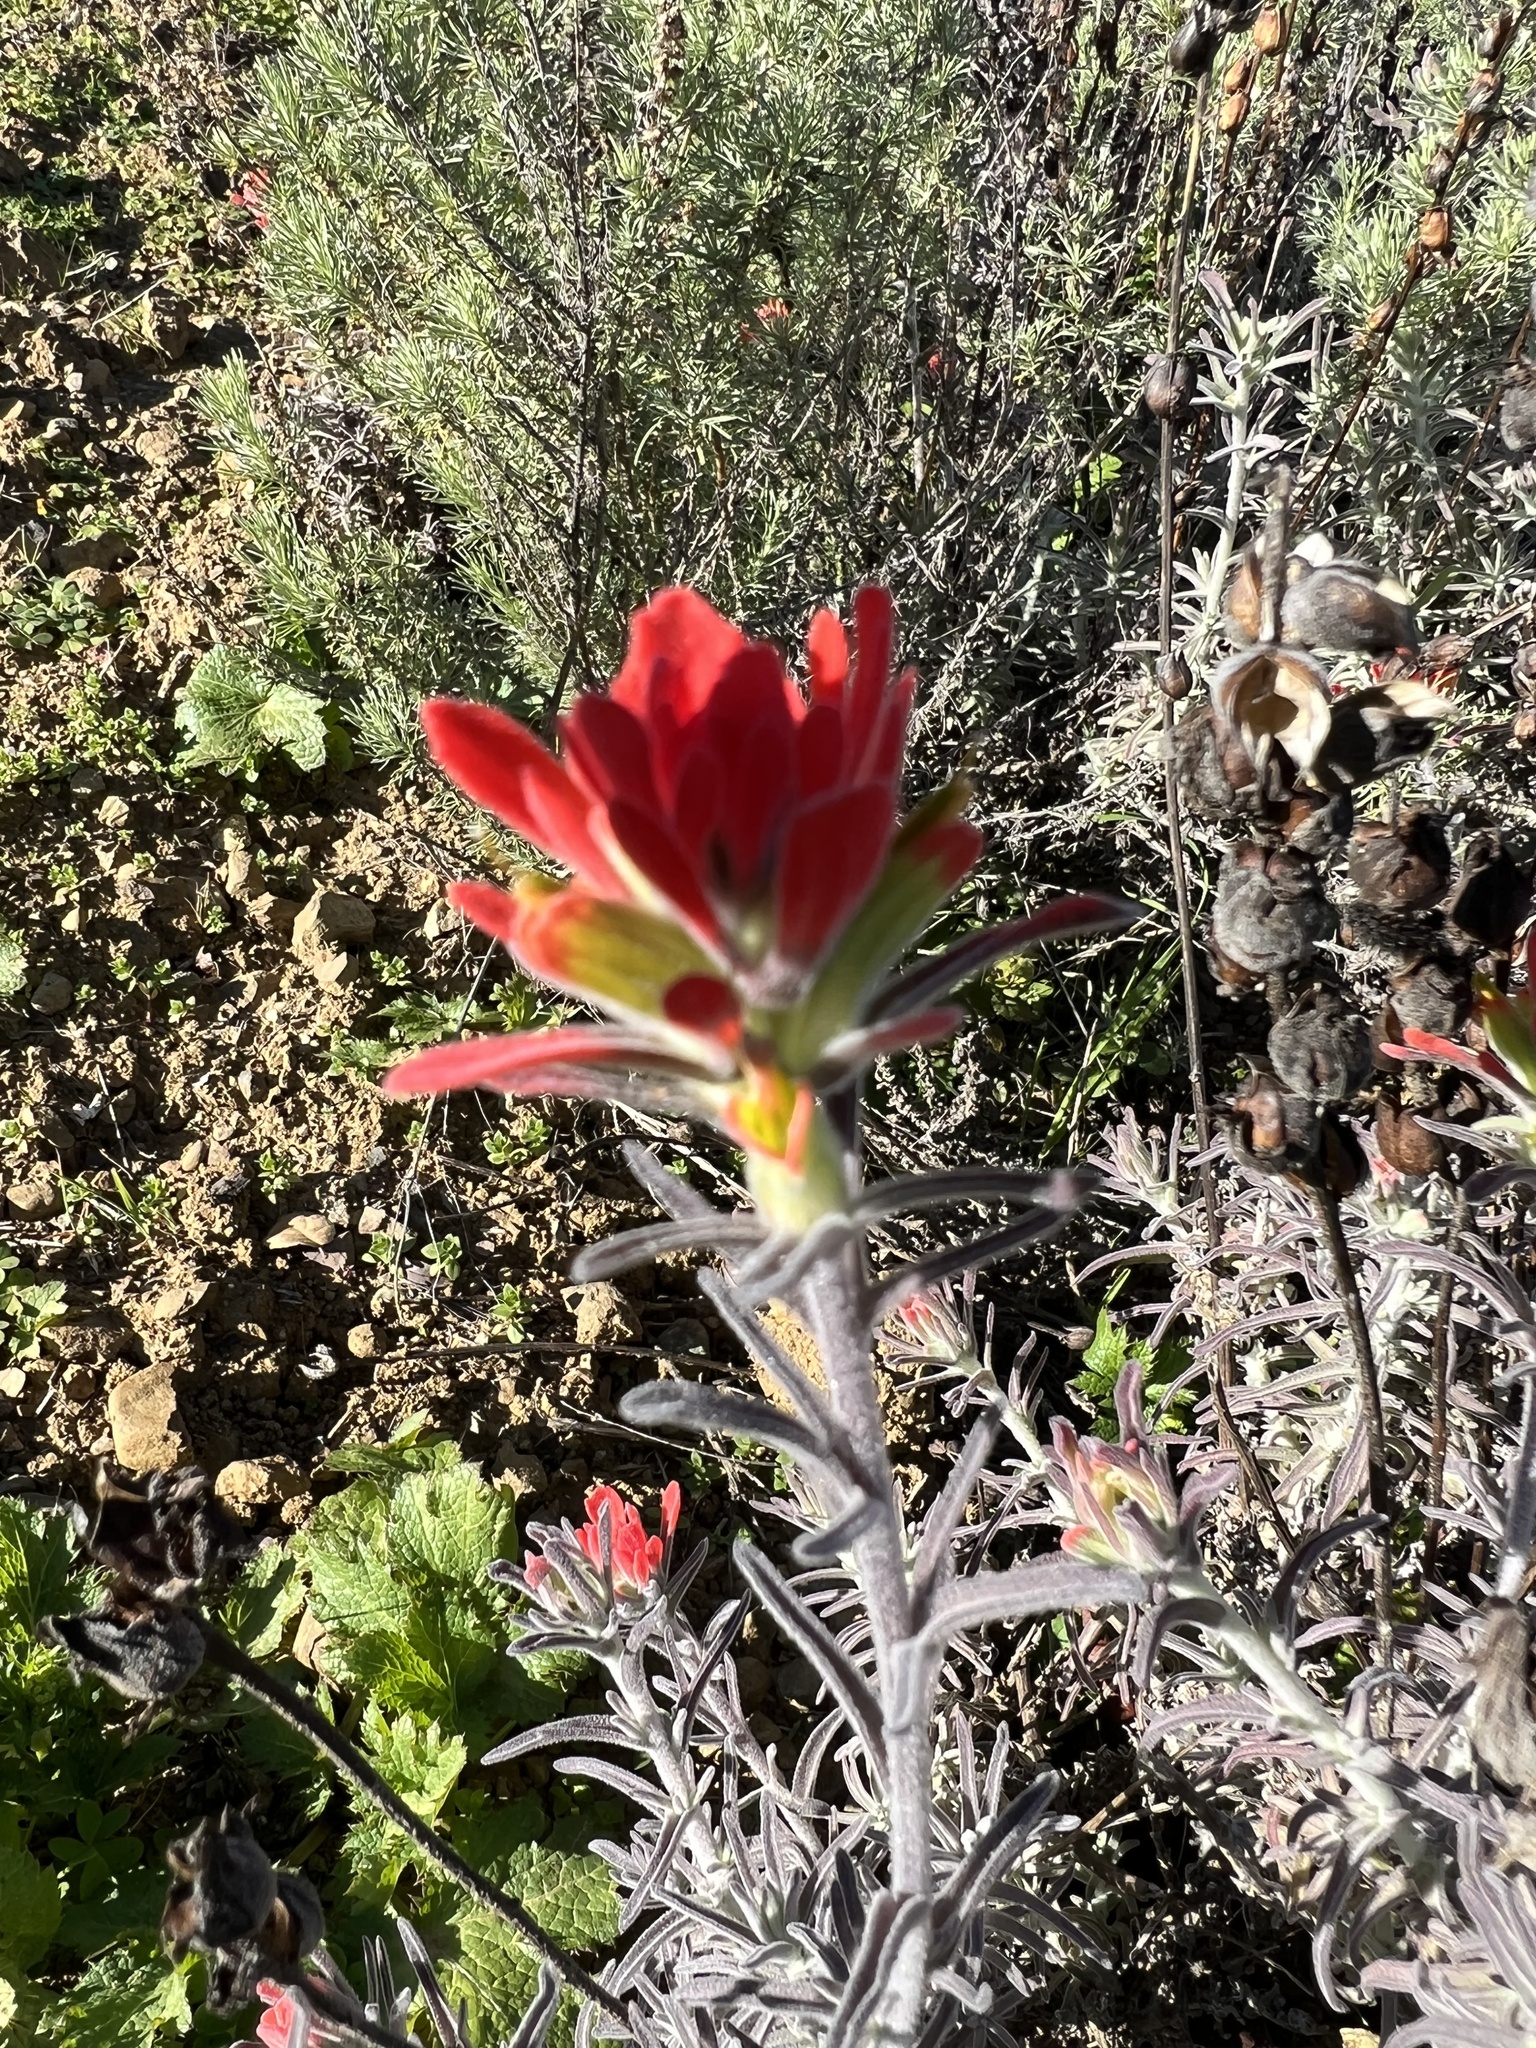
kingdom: Plantae
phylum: Tracheophyta
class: Magnoliopsida
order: Lamiales
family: Orobanchaceae
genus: Castilleja
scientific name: Castilleja foliolosa
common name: Woolly indian paintbrush
